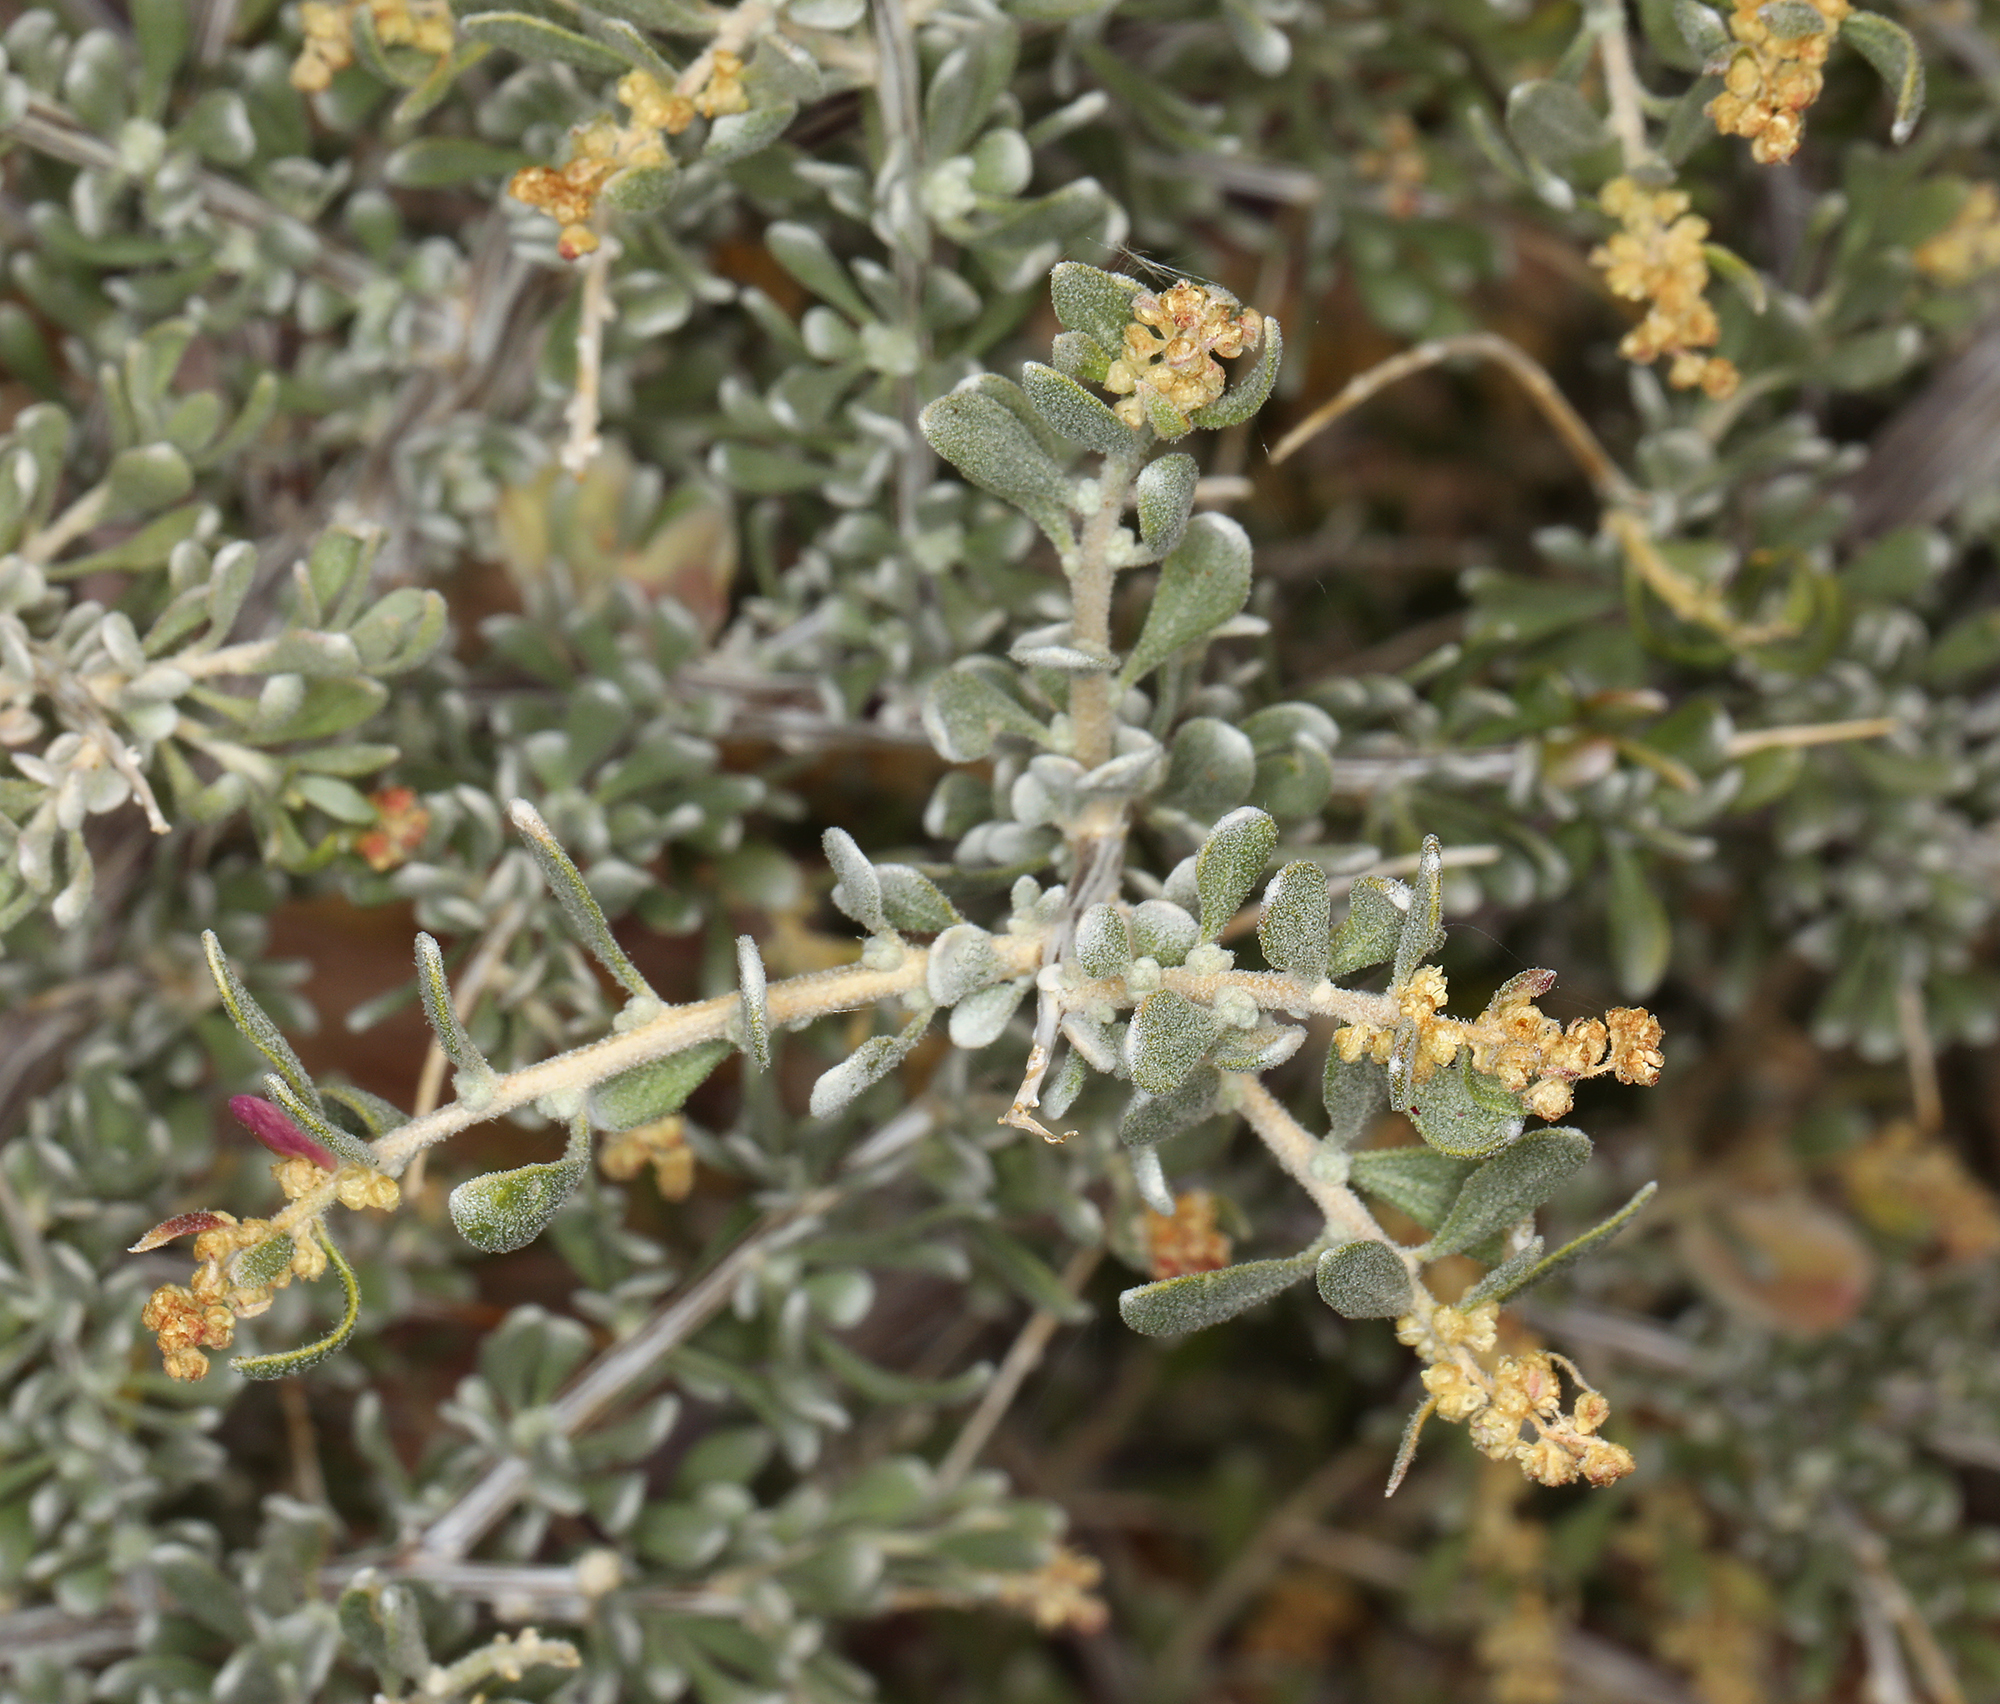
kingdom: Plantae
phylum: Tracheophyta
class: Magnoliopsida
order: Caryophyllales
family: Amaranthaceae
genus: Grayia
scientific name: Grayia spinosa
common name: Spiny hopsage
